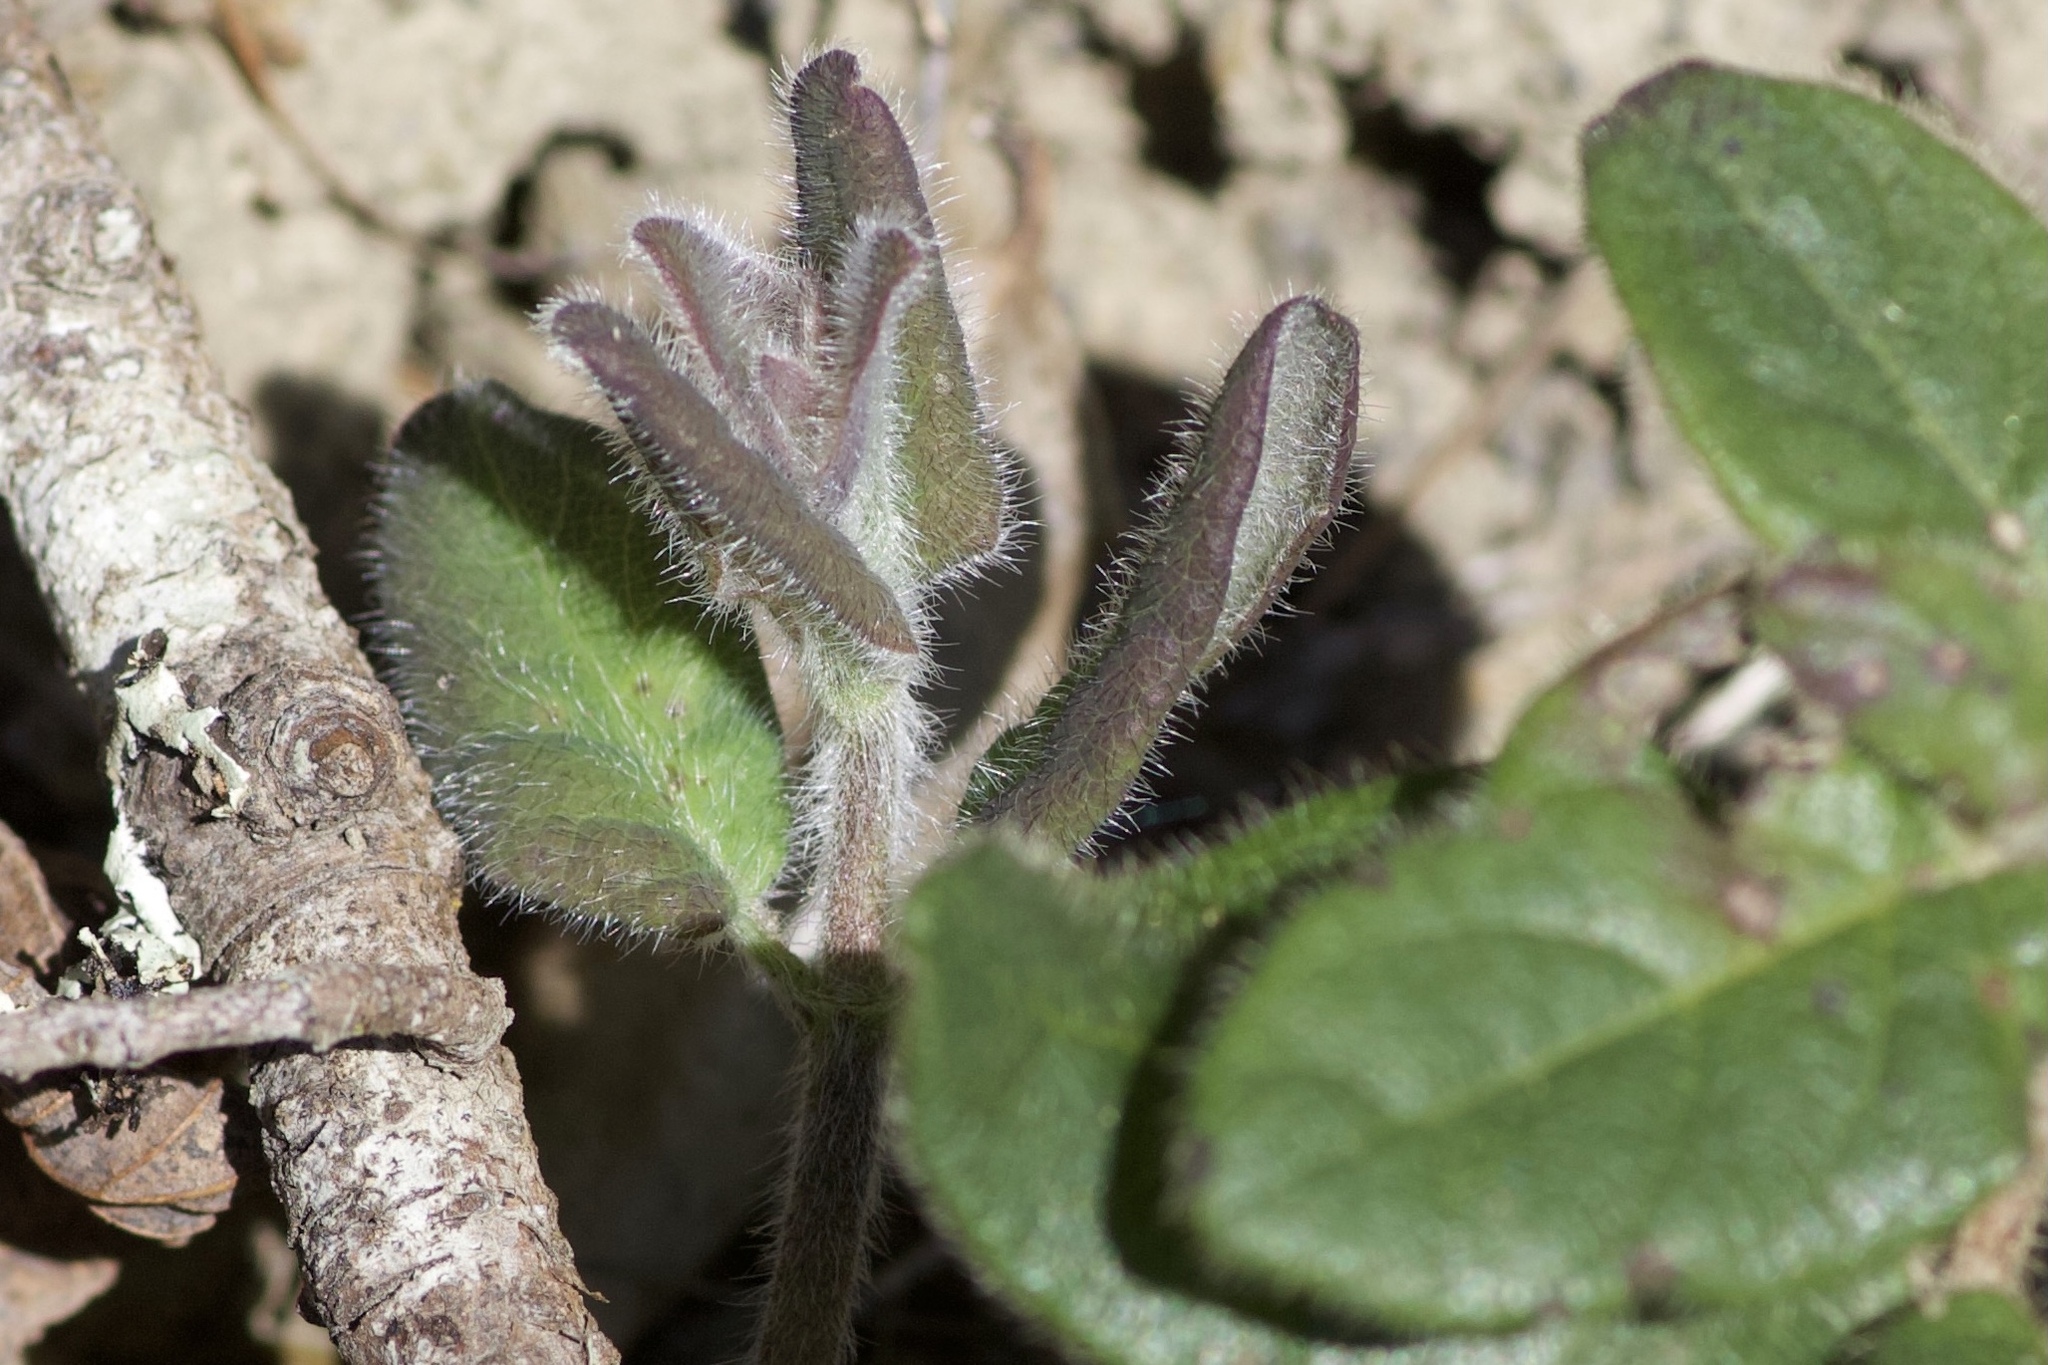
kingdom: Plantae
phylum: Tracheophyta
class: Magnoliopsida
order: Dipsacales
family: Caprifoliaceae
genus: Lonicera
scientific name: Lonicera hispidula
